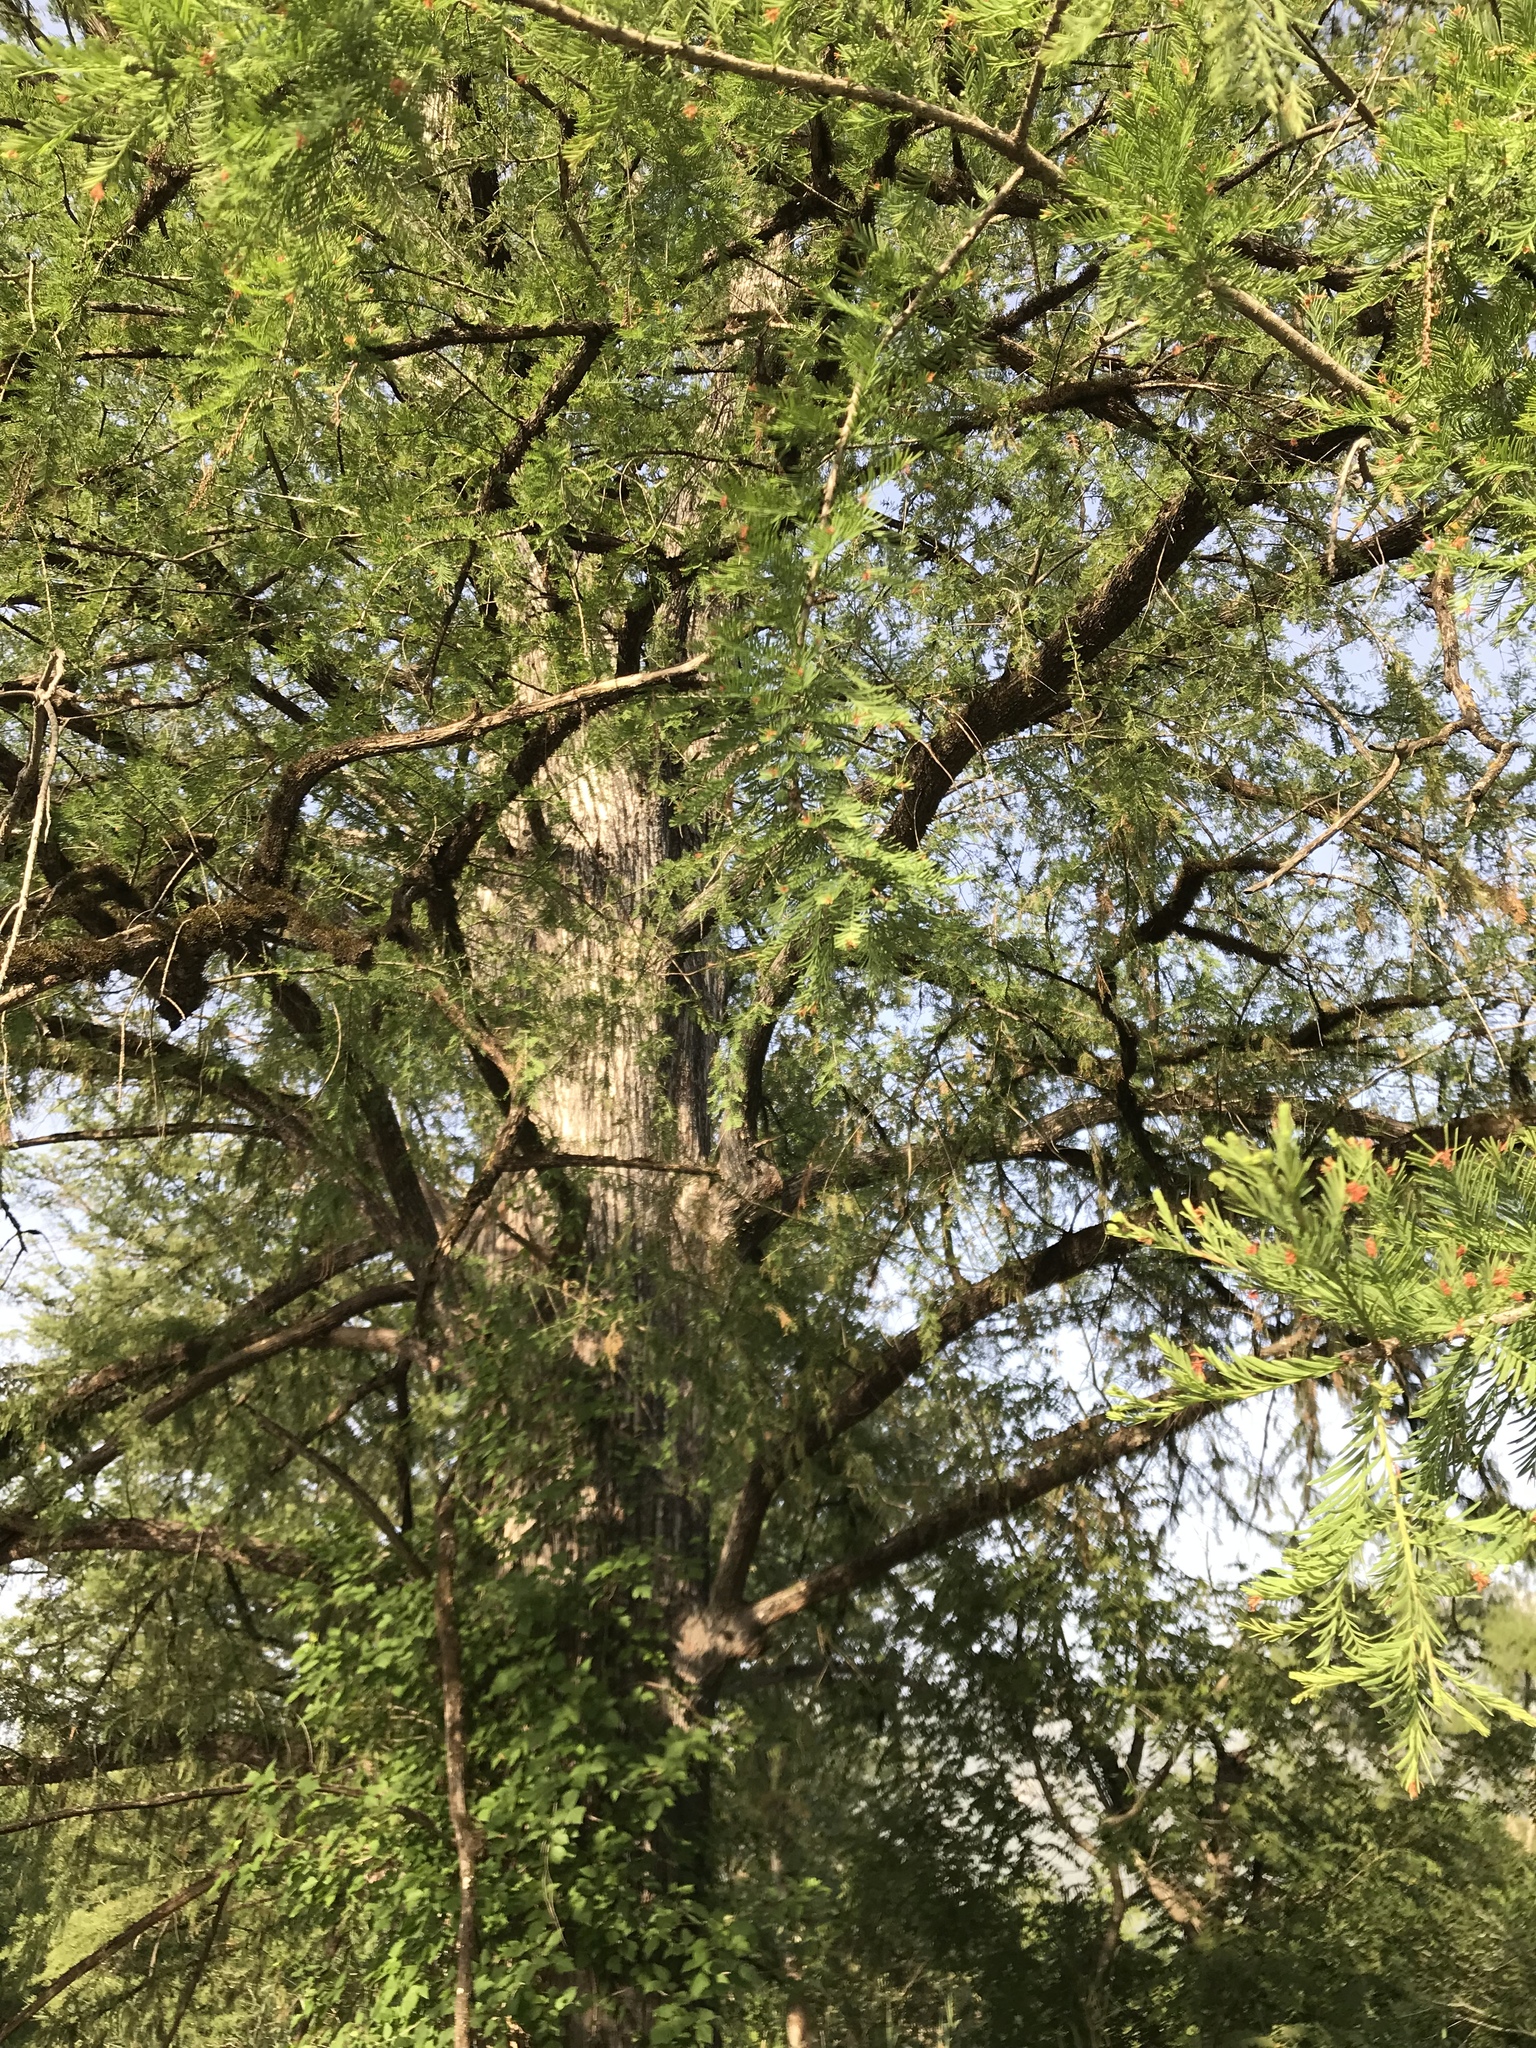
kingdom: Plantae
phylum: Tracheophyta
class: Pinopsida
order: Pinales
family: Cupressaceae
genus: Taxodium
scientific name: Taxodium mucronatum
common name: Montezume bald cypress
